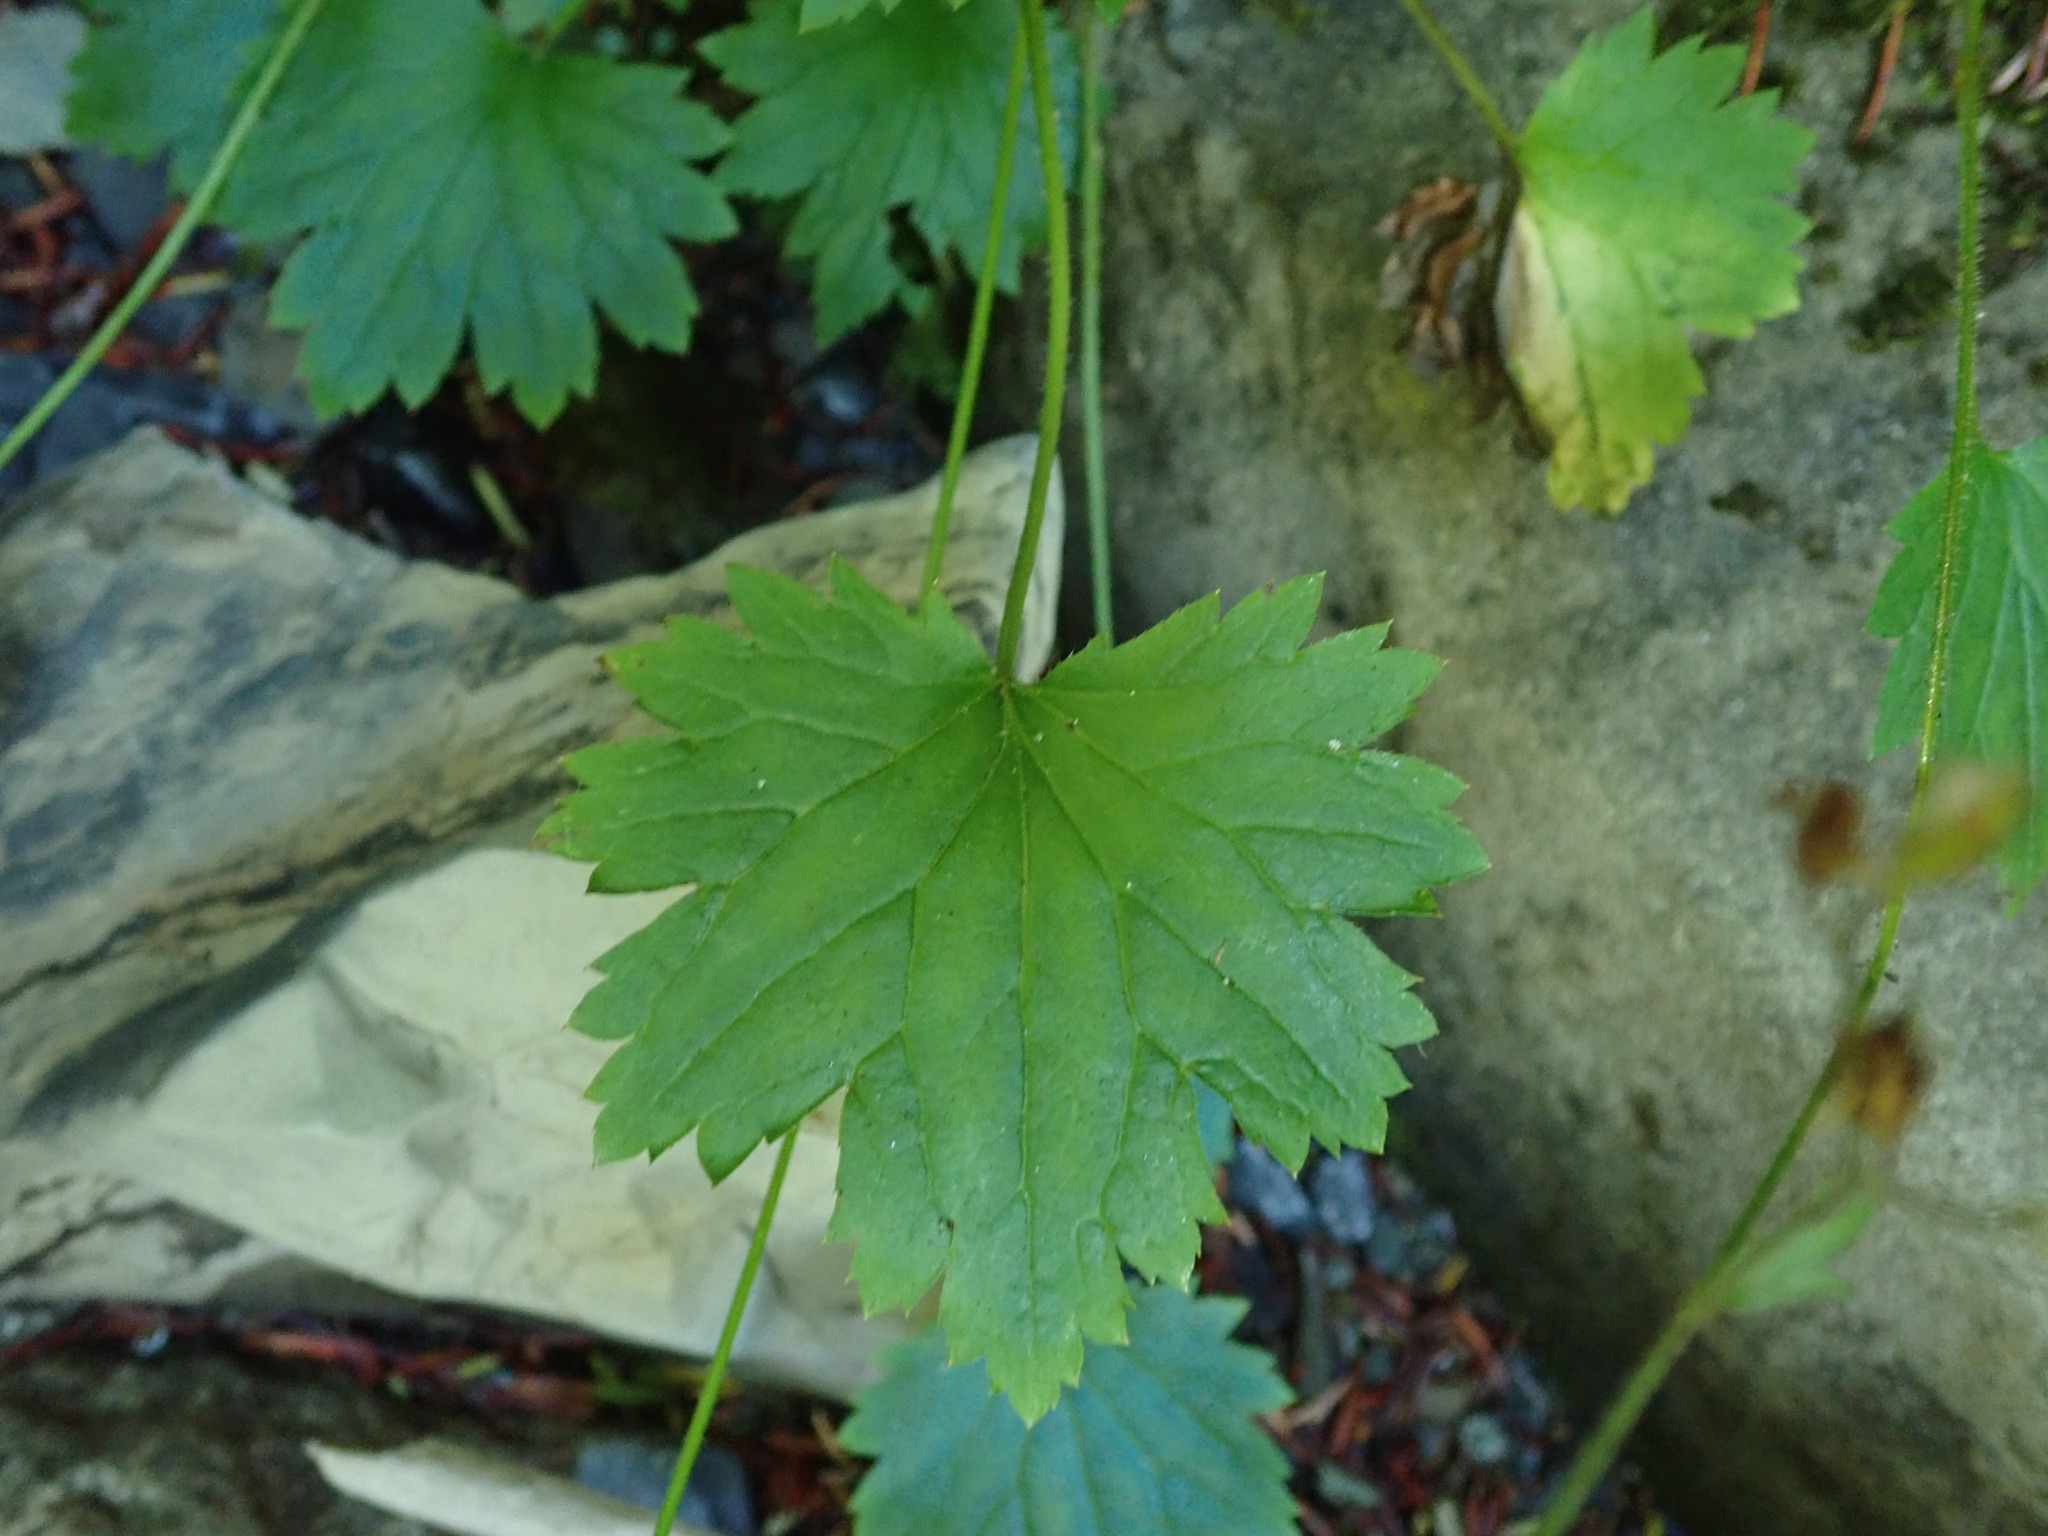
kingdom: Plantae
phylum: Tracheophyta
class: Magnoliopsida
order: Saxifragales
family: Saxifragaceae
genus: Boykinia
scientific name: Boykinia occidentalis
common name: Coast boykinia
